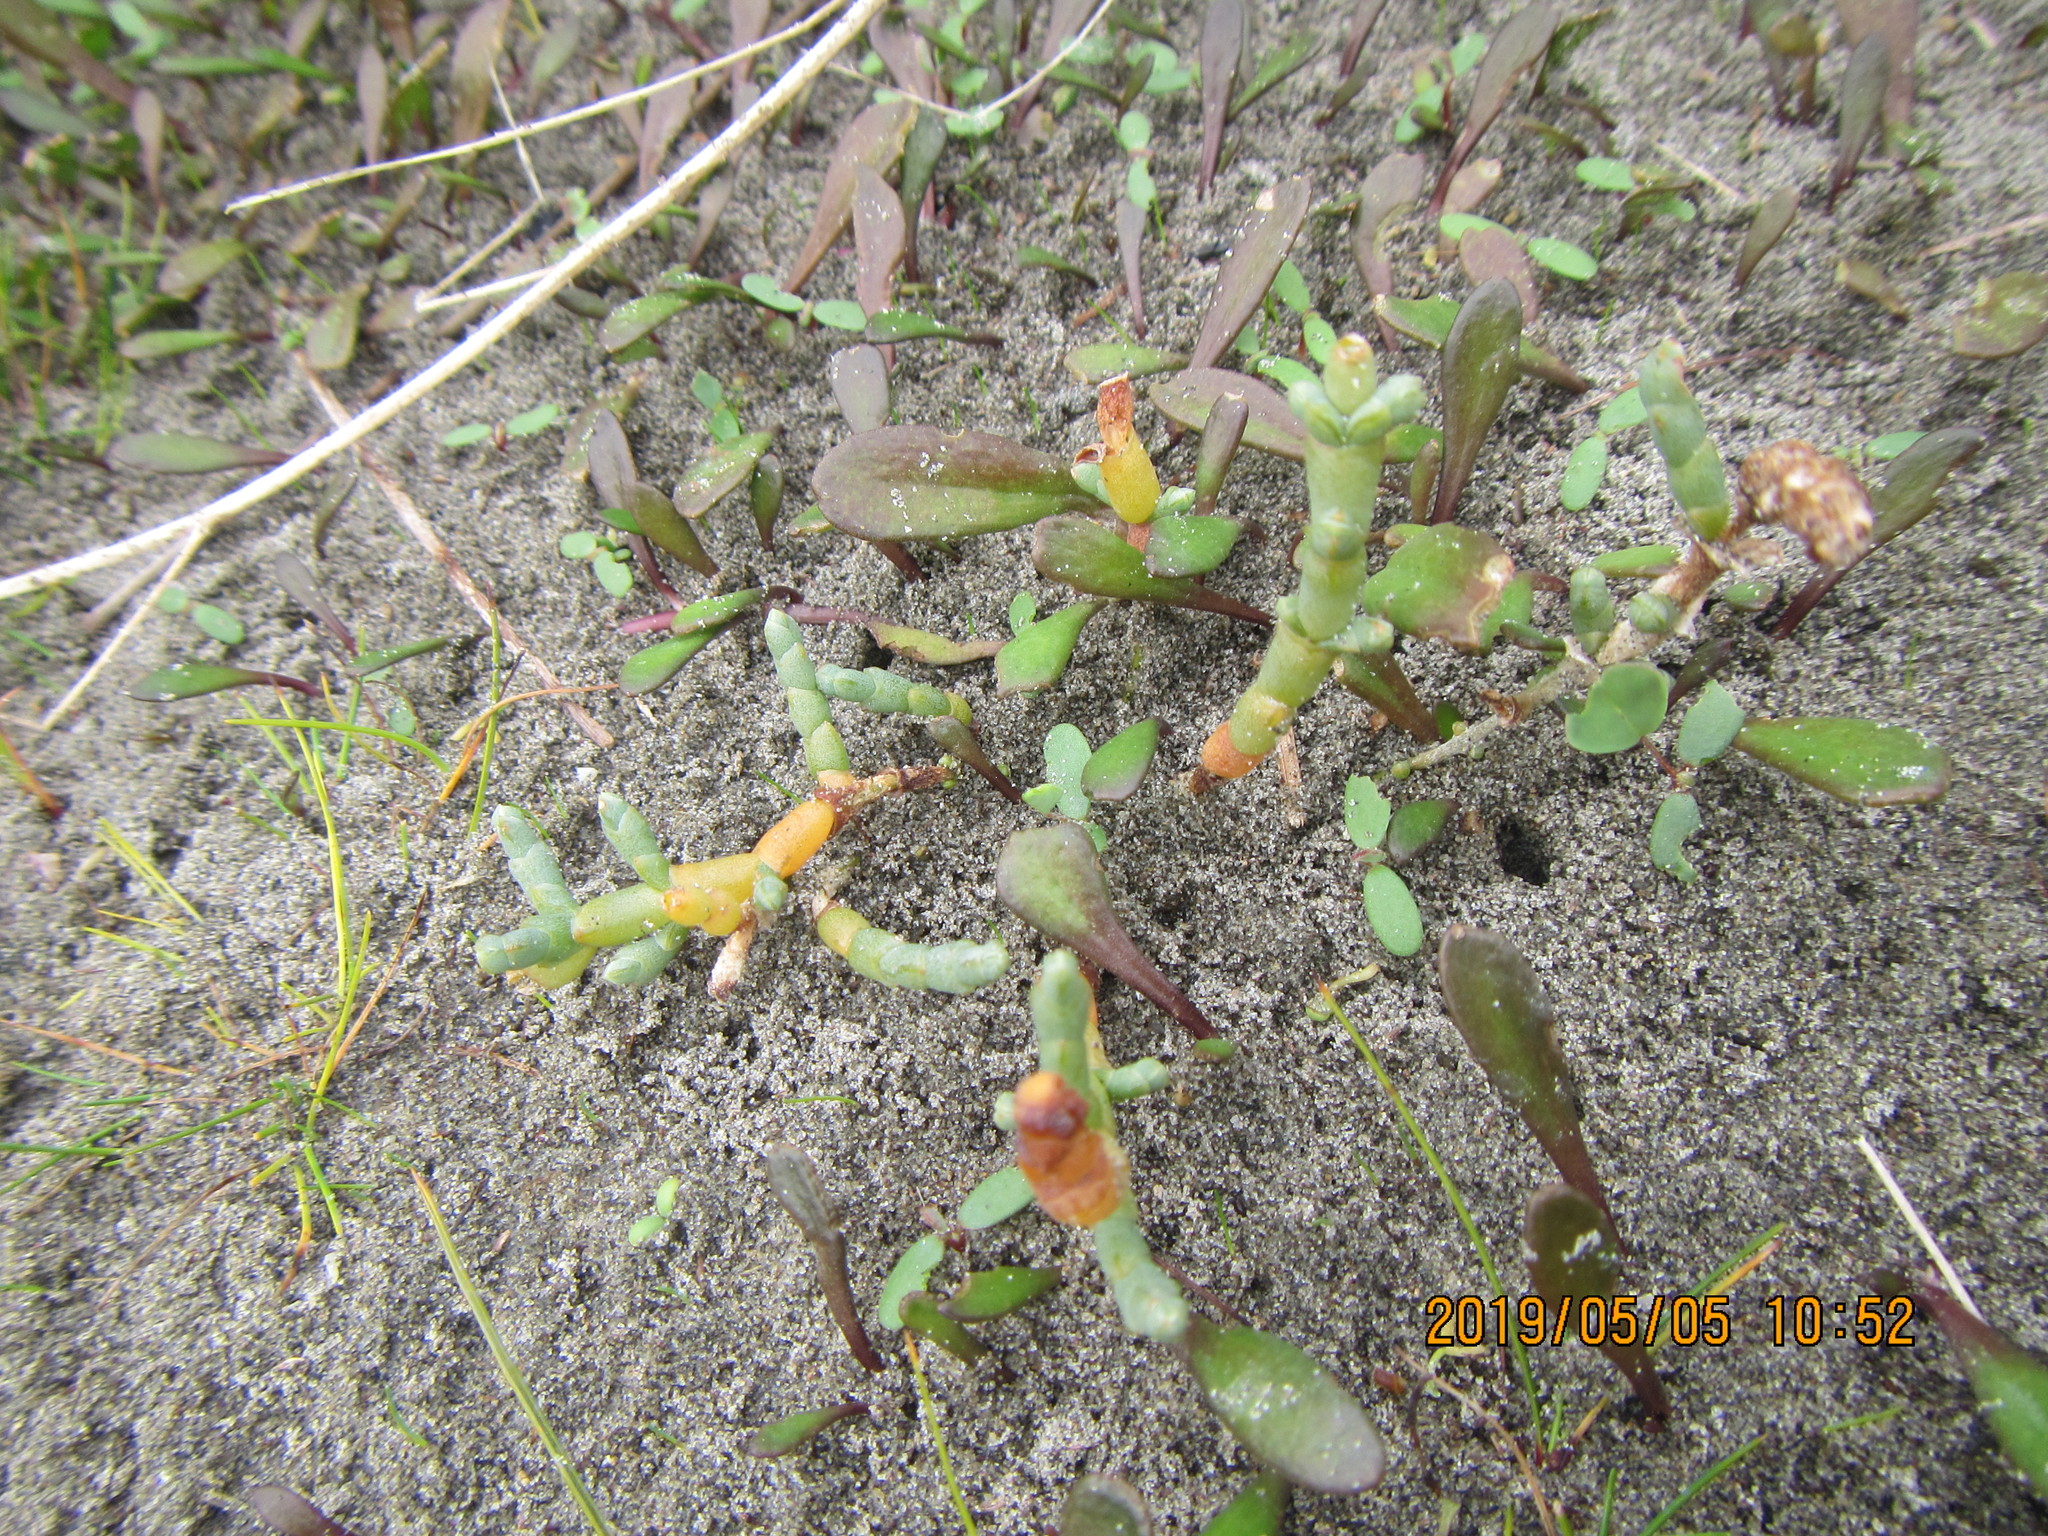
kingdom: Plantae
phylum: Tracheophyta
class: Magnoliopsida
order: Caryophyllales
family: Amaranthaceae
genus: Salicornia
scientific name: Salicornia quinqueflora
